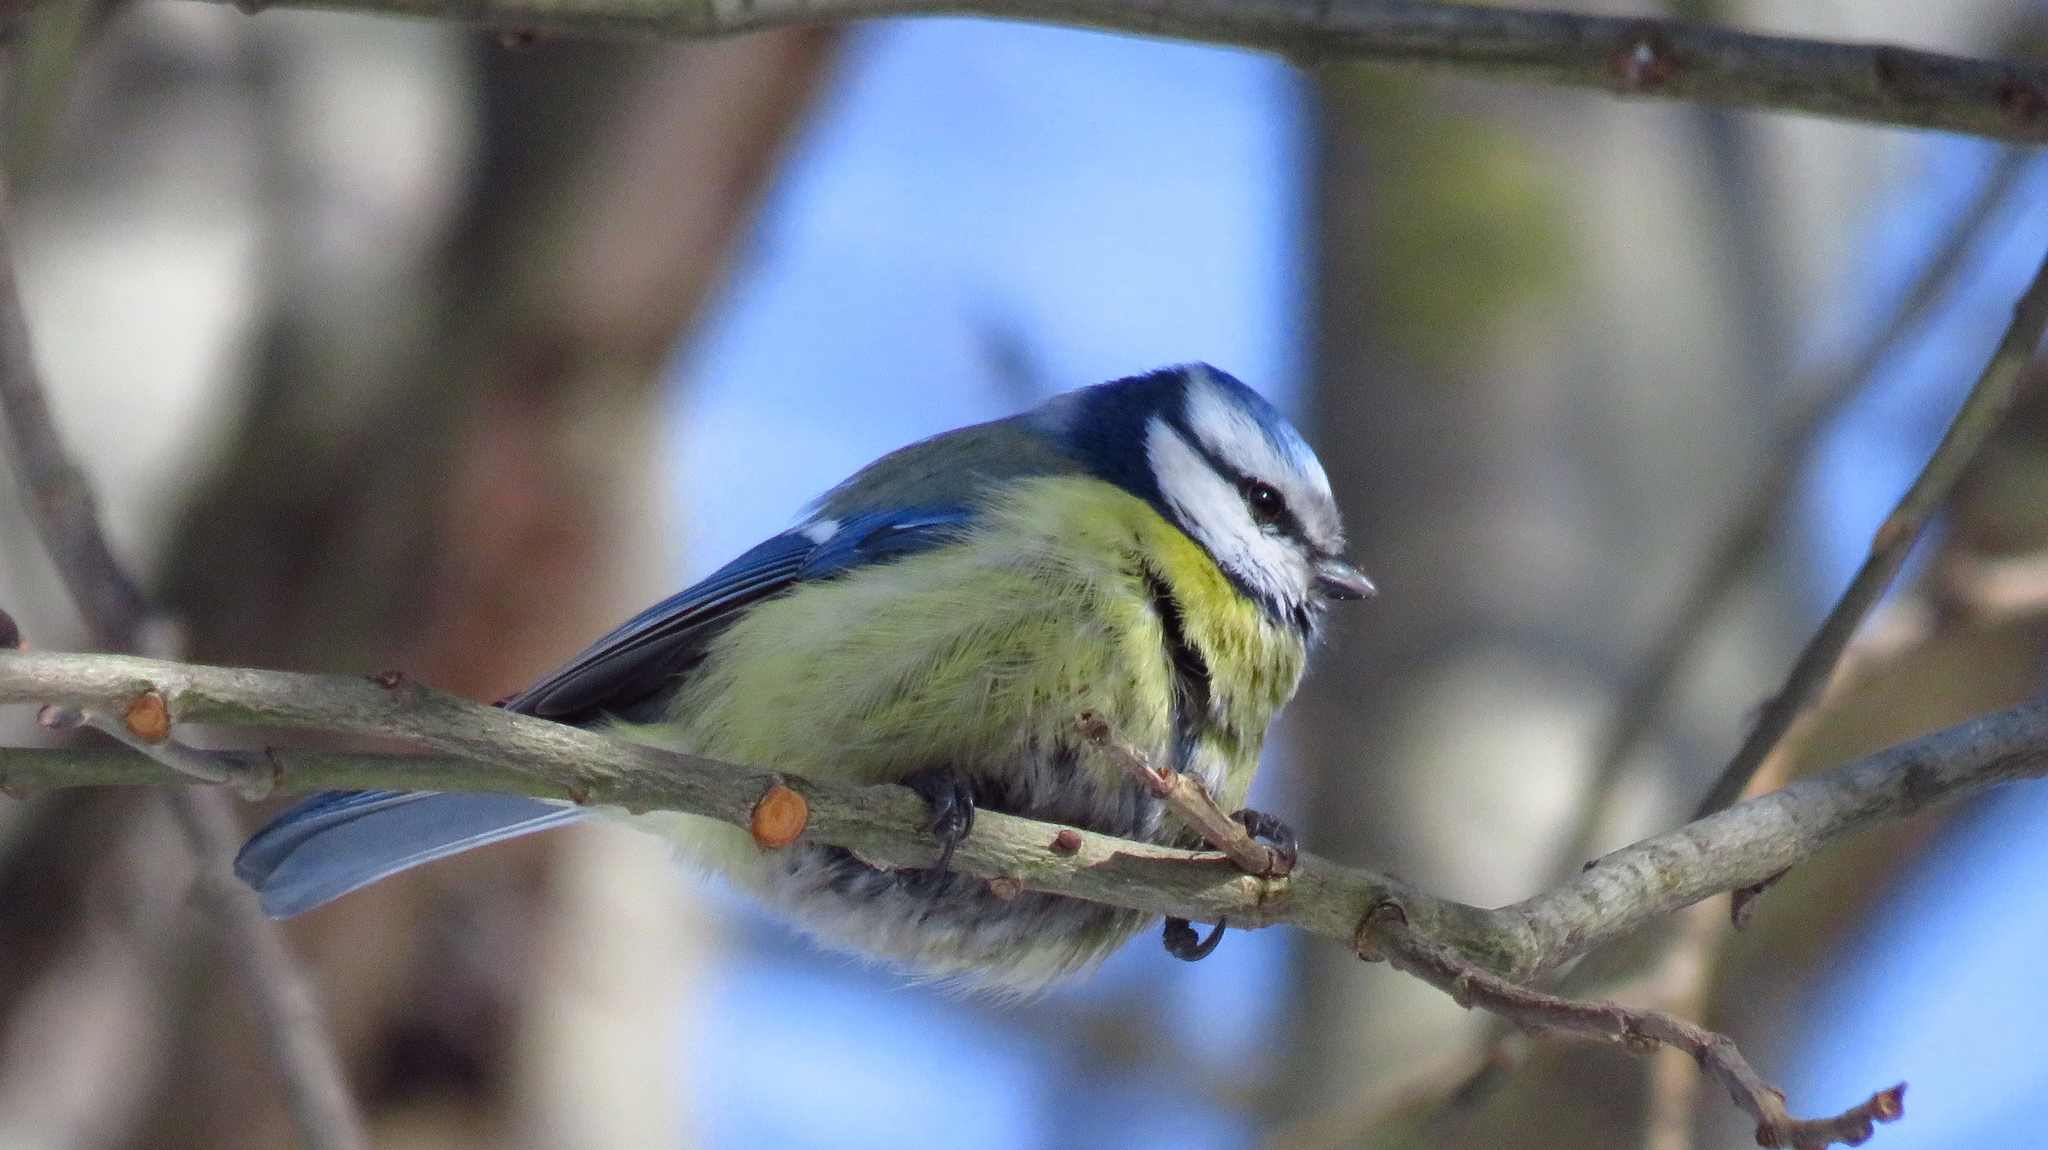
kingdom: Animalia
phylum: Chordata
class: Aves
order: Passeriformes
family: Paridae
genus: Cyanistes
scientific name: Cyanistes caeruleus
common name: Eurasian blue tit
